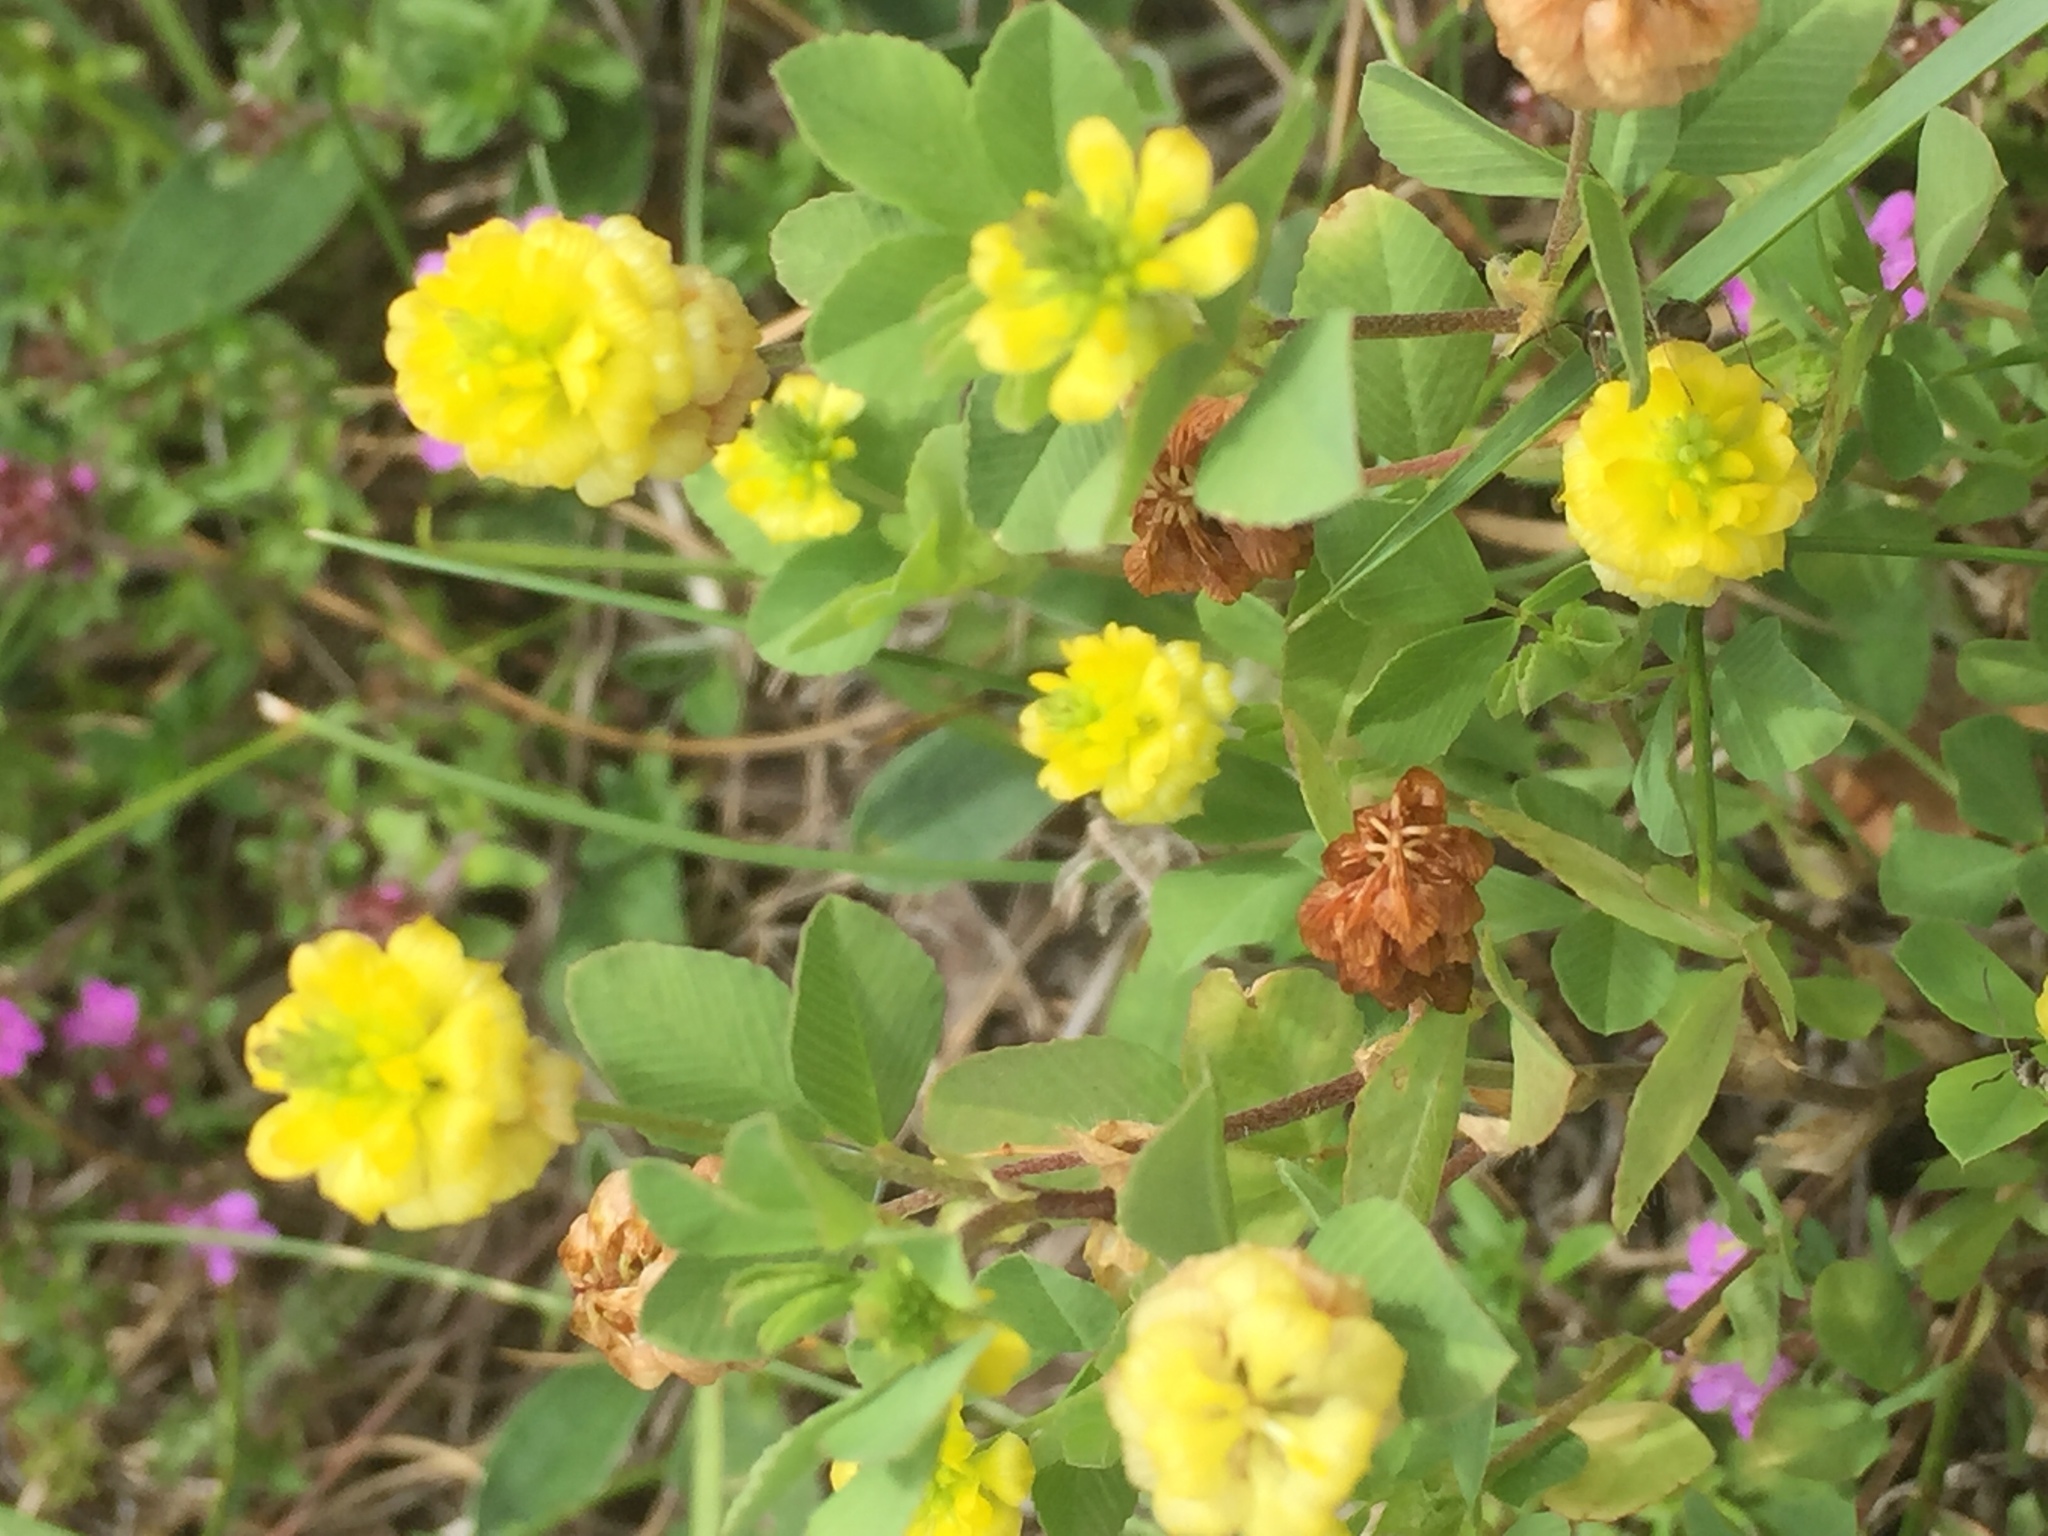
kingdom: Plantae
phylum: Tracheophyta
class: Magnoliopsida
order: Fabales
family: Fabaceae
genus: Trifolium
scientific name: Trifolium campestre
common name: Field clover
